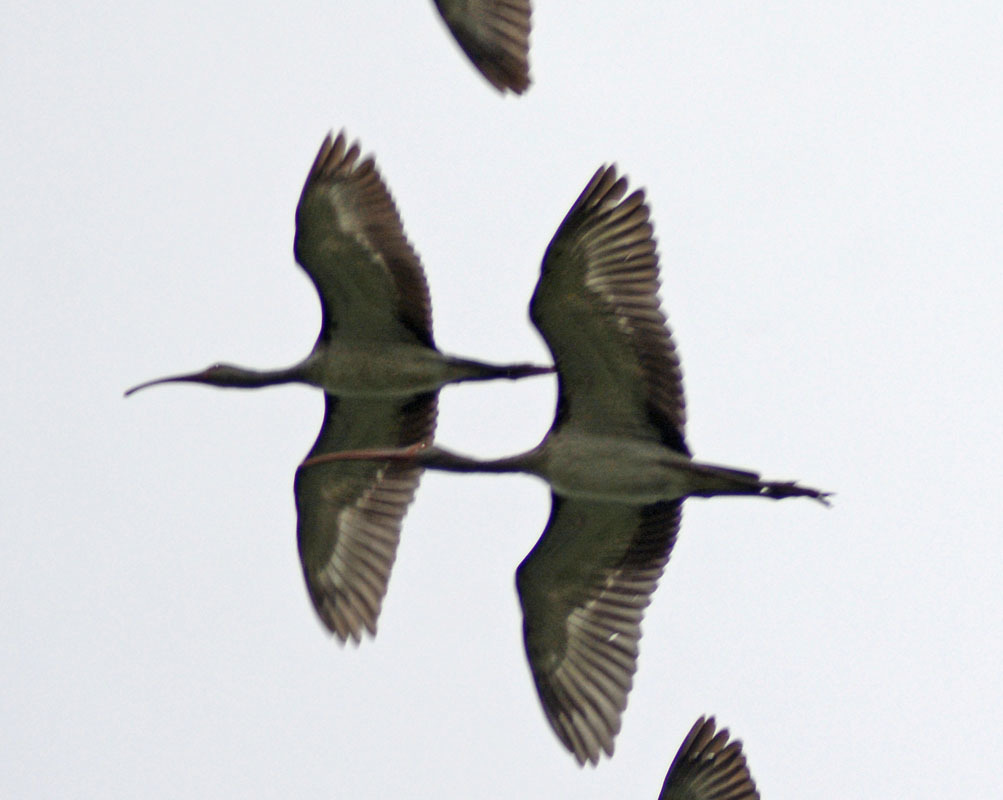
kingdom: Animalia
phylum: Chordata
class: Aves
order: Pelecaniformes
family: Threskiornithidae
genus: Eudocimus
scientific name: Eudocimus albus
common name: White ibis
